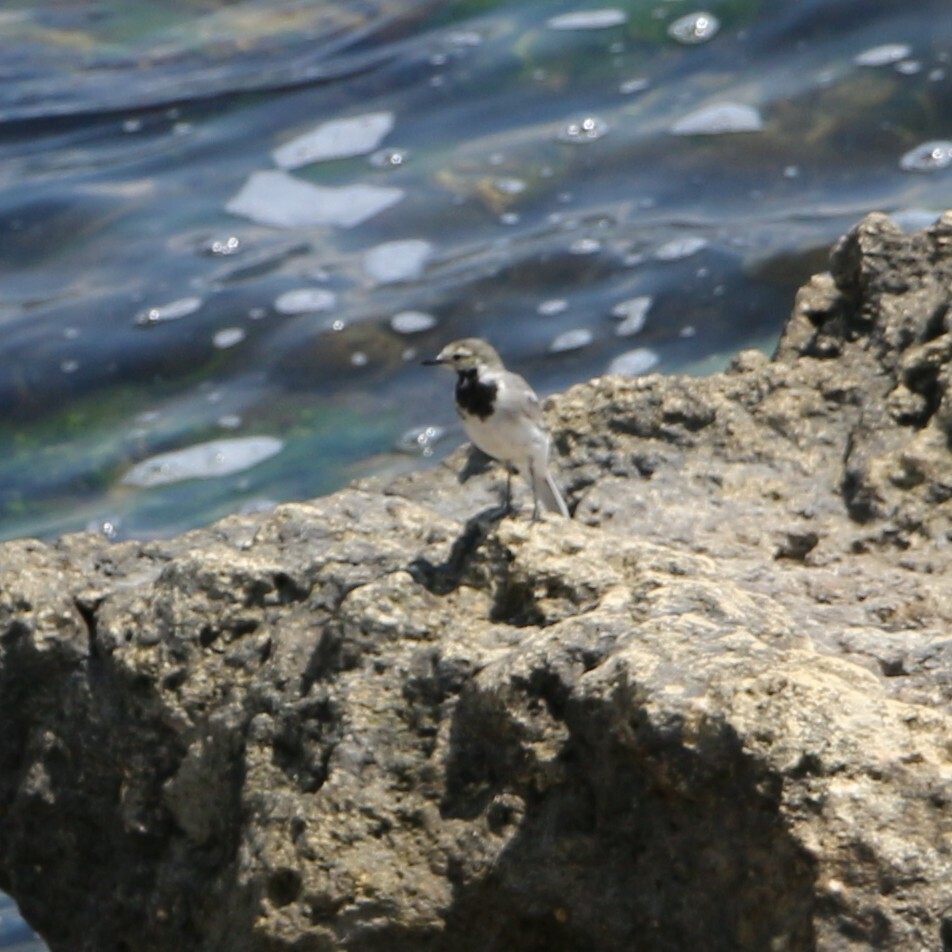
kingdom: Animalia
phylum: Chordata
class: Aves
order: Passeriformes
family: Motacillidae
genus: Motacilla
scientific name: Motacilla alba
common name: White wagtail
